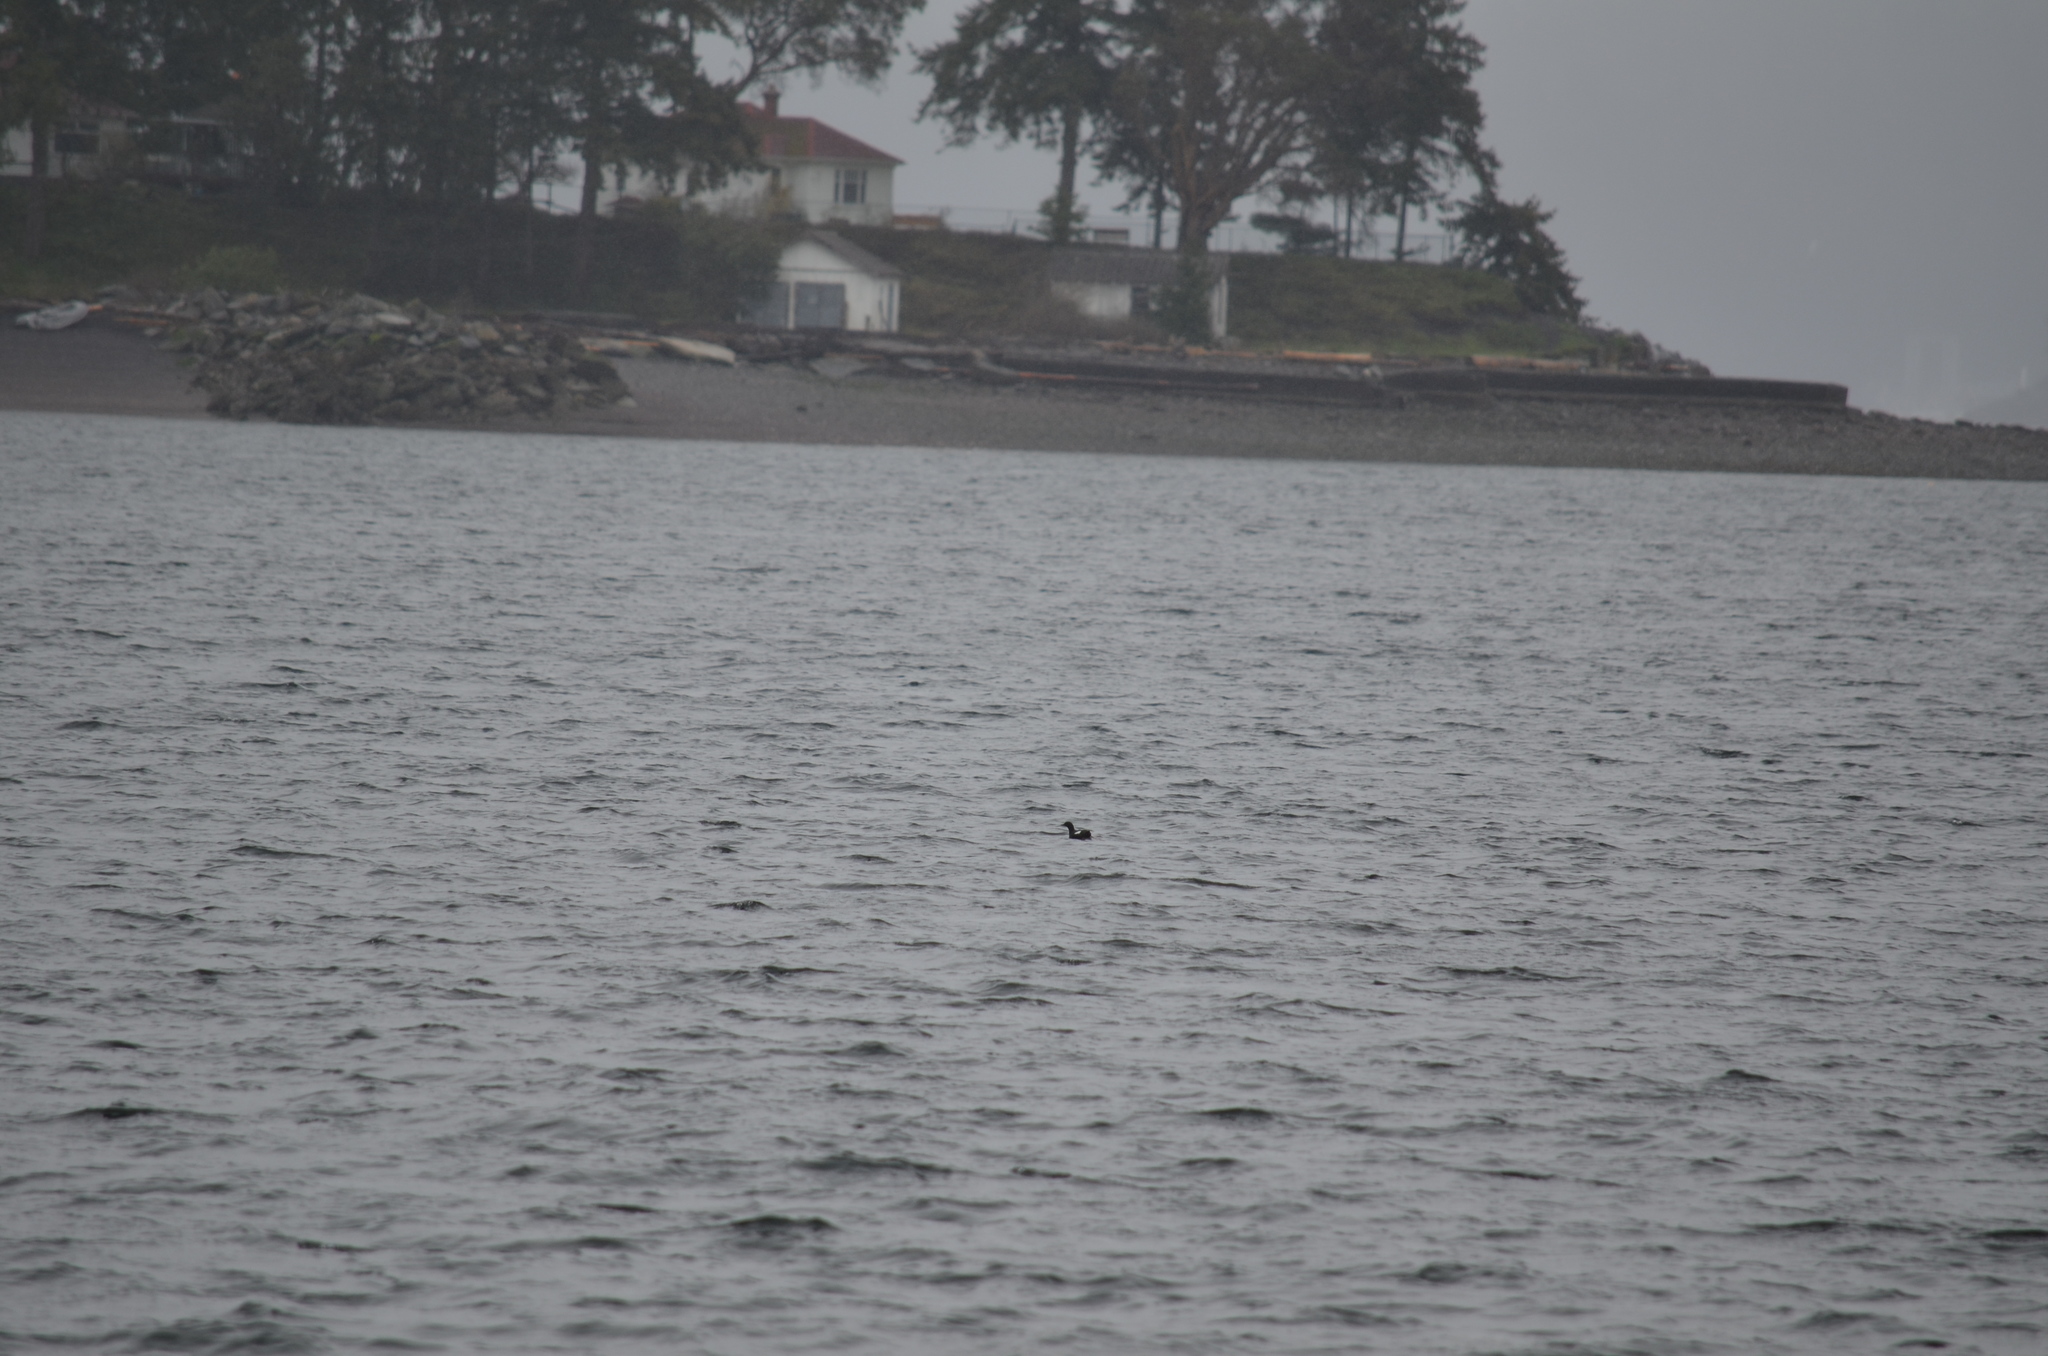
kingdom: Animalia
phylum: Chordata
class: Aves
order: Charadriiformes
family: Alcidae
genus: Cepphus
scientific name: Cepphus columba
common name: Pigeon guillemot
